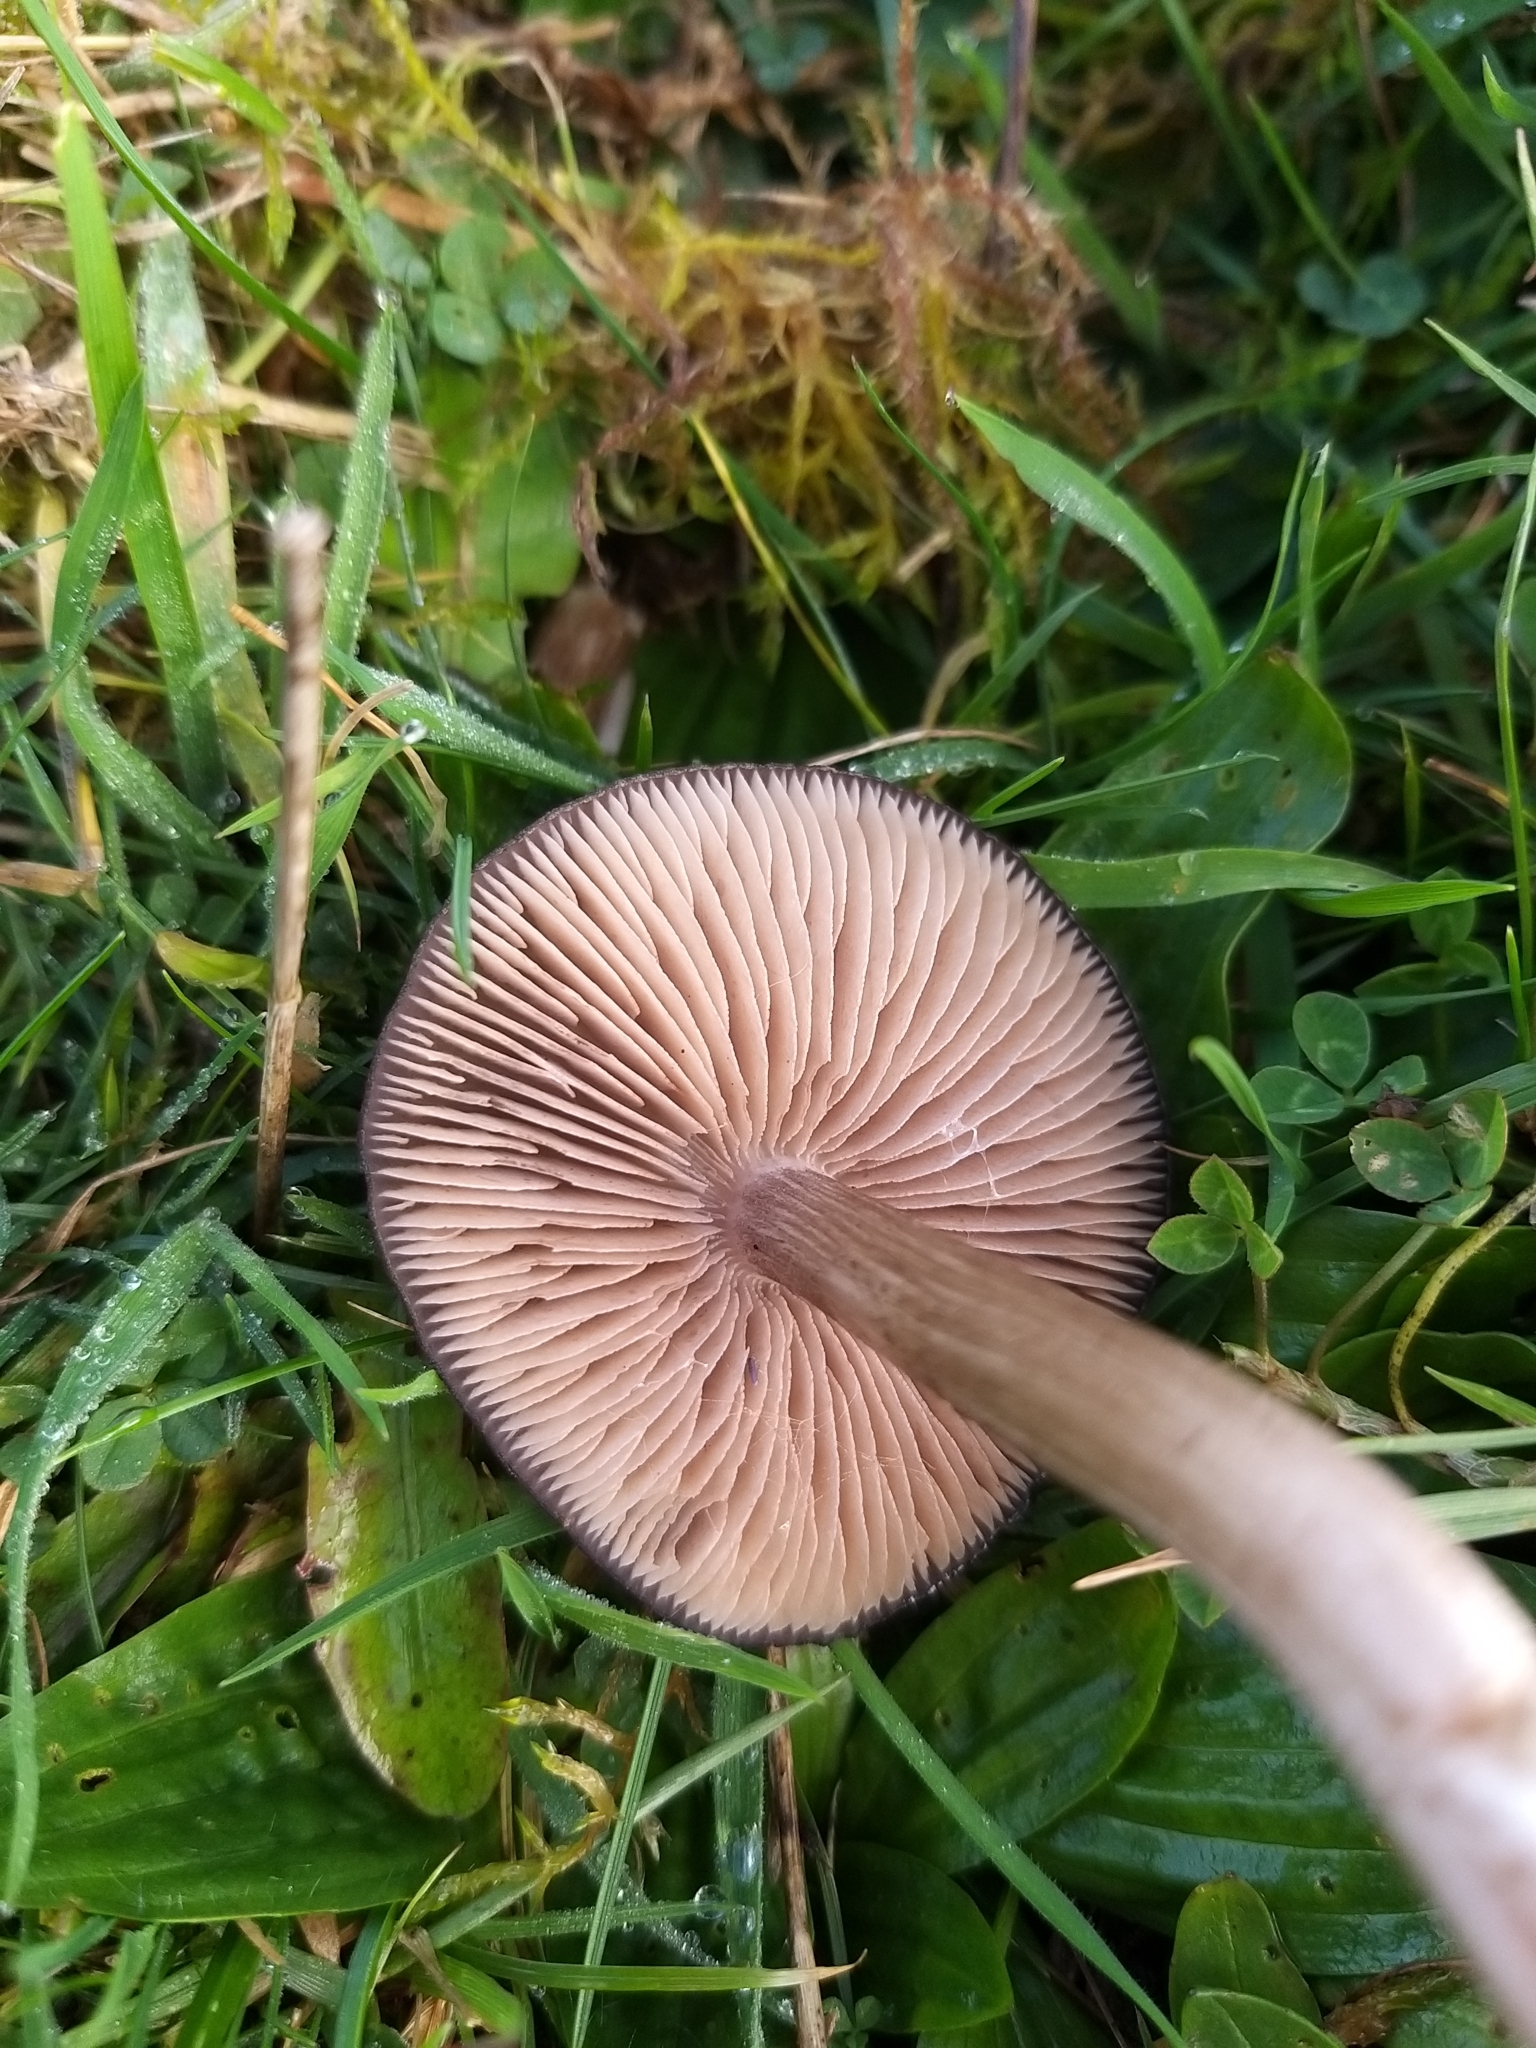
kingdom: Fungi
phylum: Basidiomycota
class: Agaricomycetes
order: Agaricales
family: Entolomataceae
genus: Entoloma
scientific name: Entoloma porphyrophaeum
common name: Lilac pinkgill
